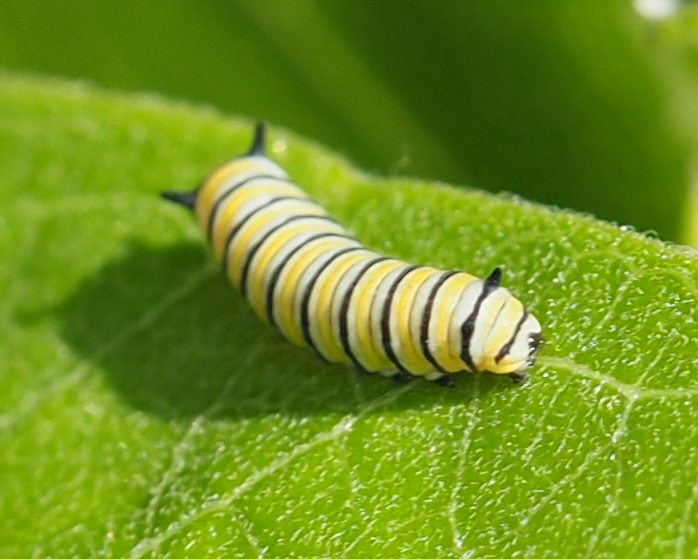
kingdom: Animalia
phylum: Arthropoda
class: Insecta
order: Lepidoptera
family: Nymphalidae
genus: Danaus
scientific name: Danaus plexippus
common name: Monarch
